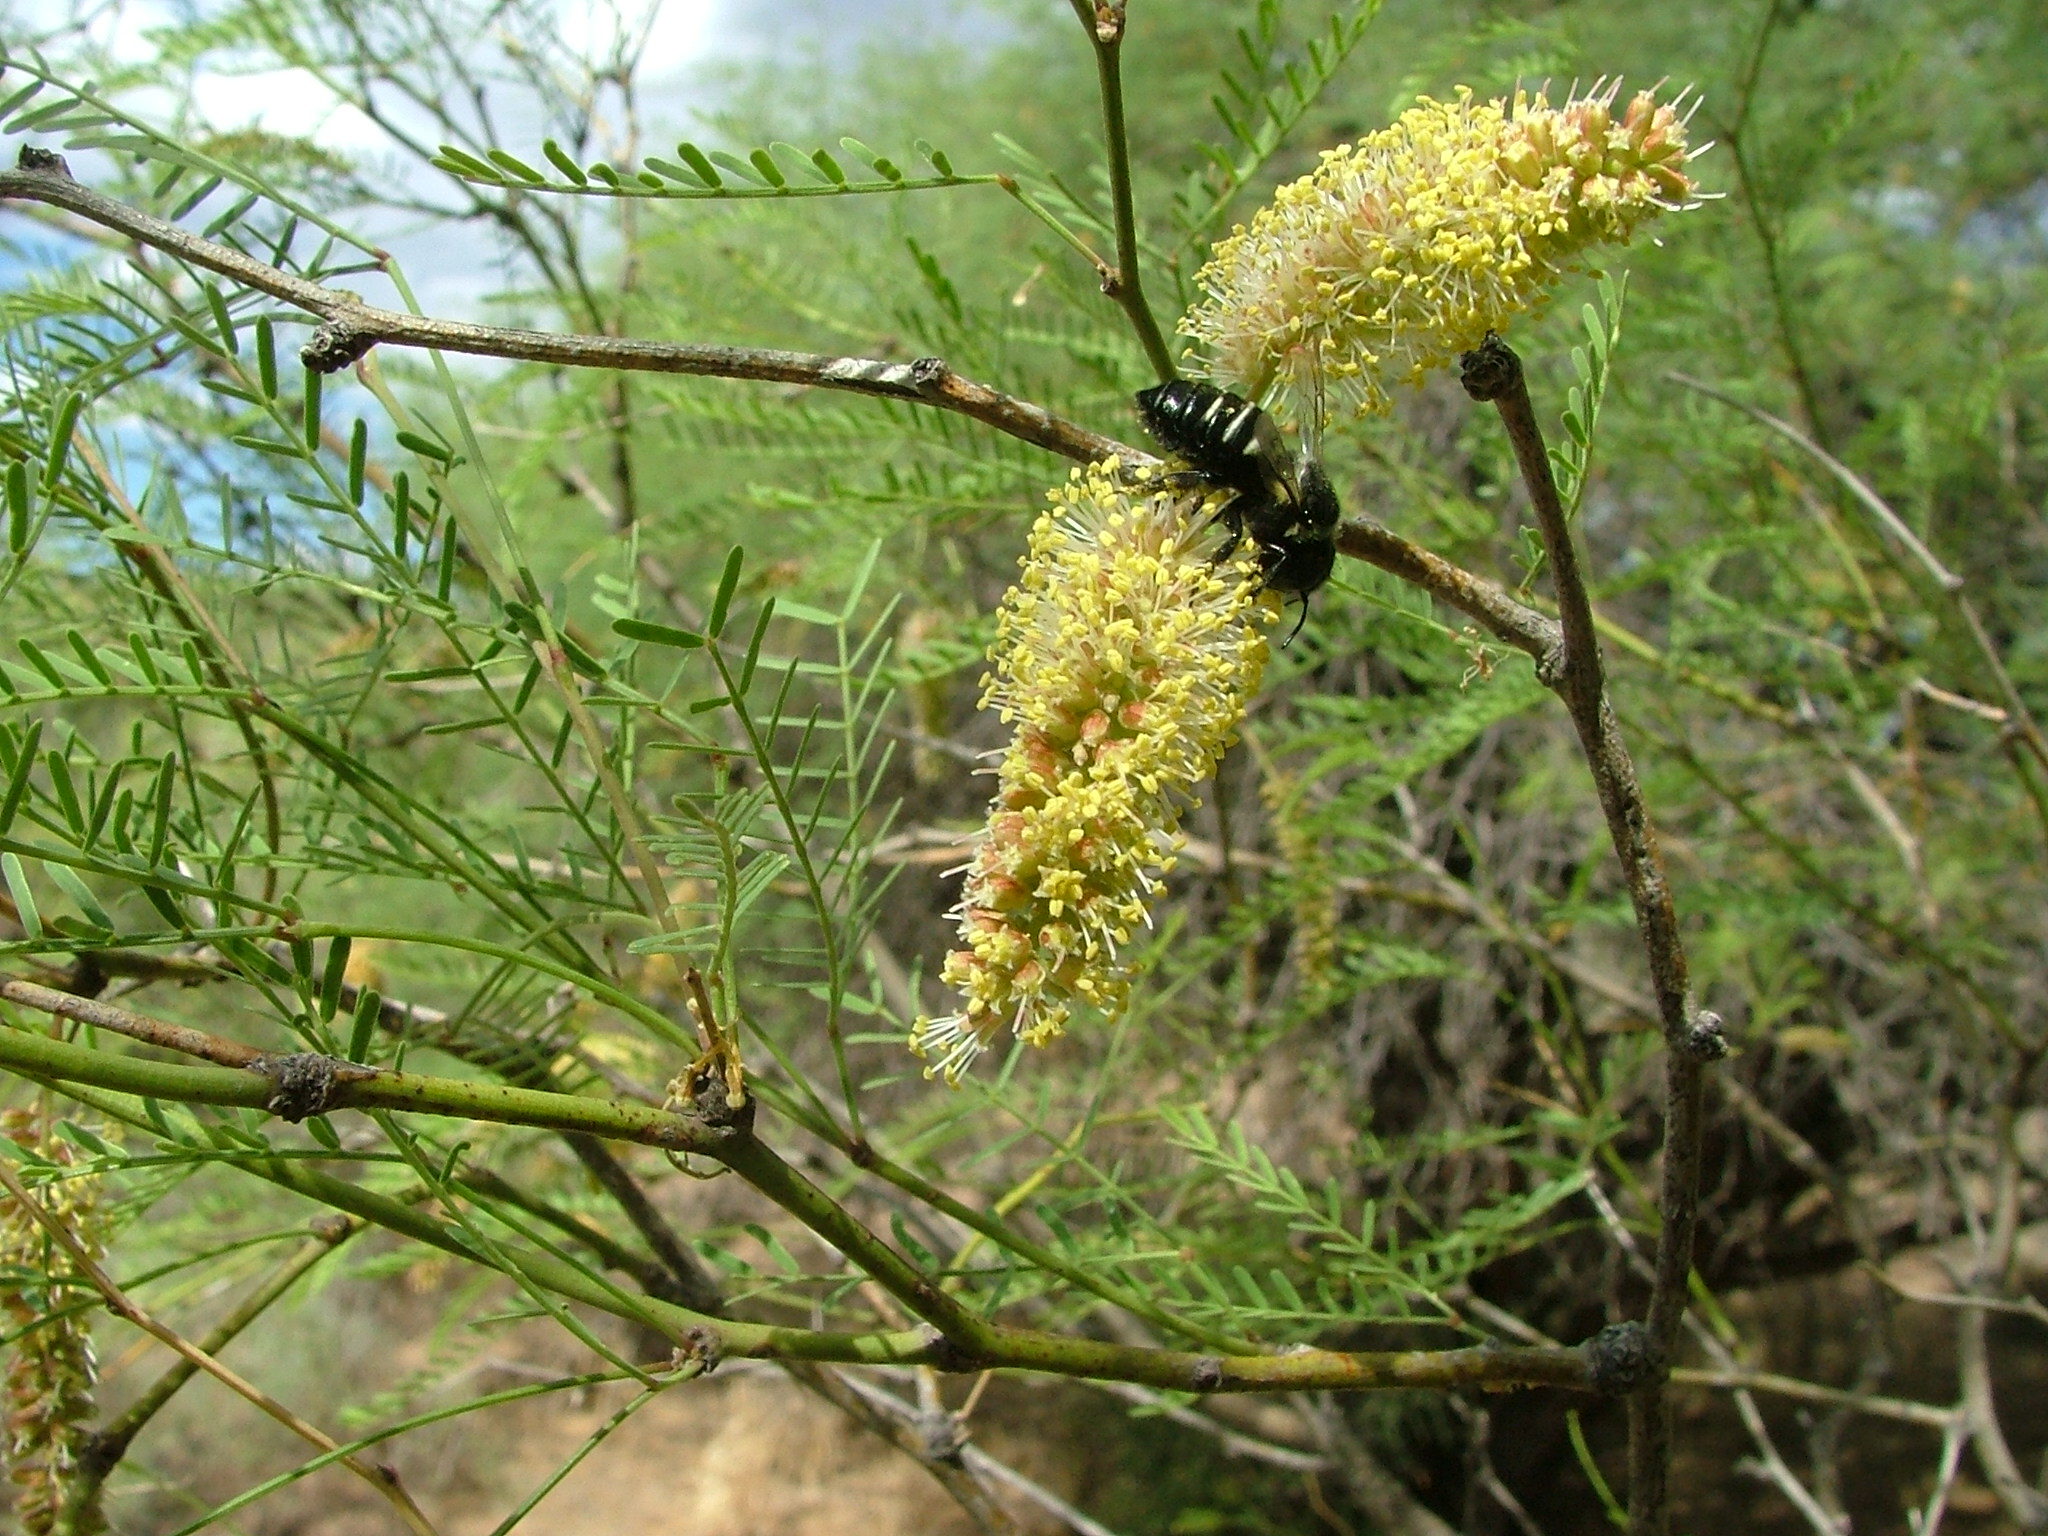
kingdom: Plantae
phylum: Tracheophyta
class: Magnoliopsida
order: Fabales
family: Fabaceae
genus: Prosopis
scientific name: Prosopis flexuosa
